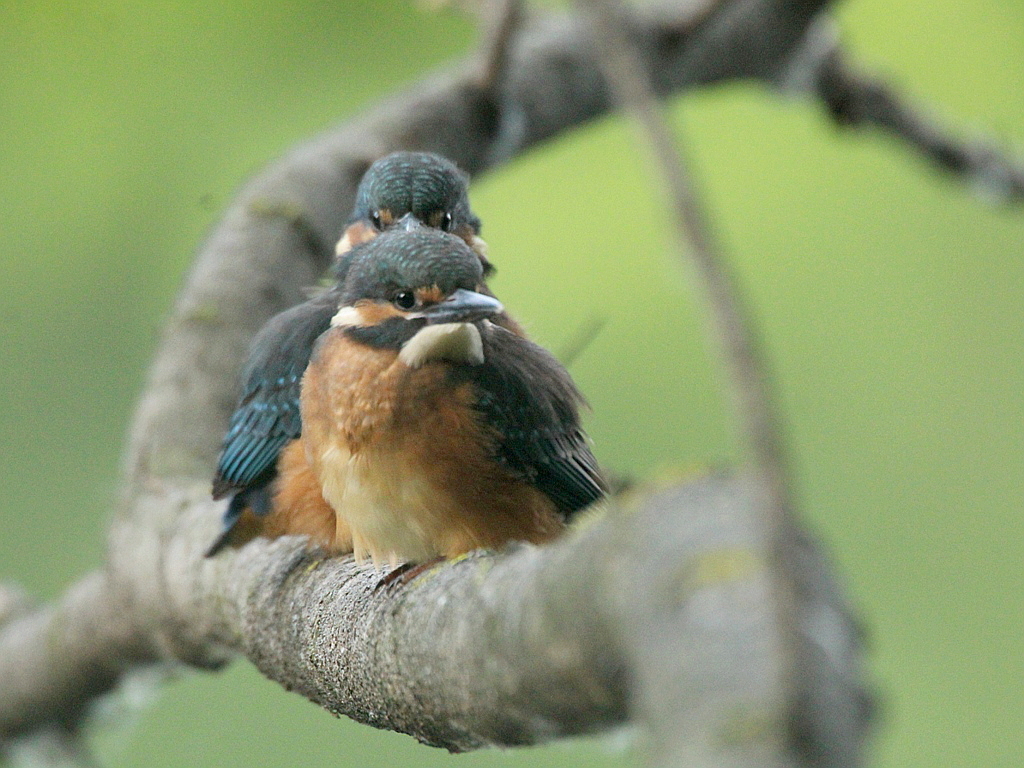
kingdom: Animalia
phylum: Chordata
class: Aves
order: Coraciiformes
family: Alcedinidae
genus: Alcedo
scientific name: Alcedo atthis
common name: Common kingfisher
